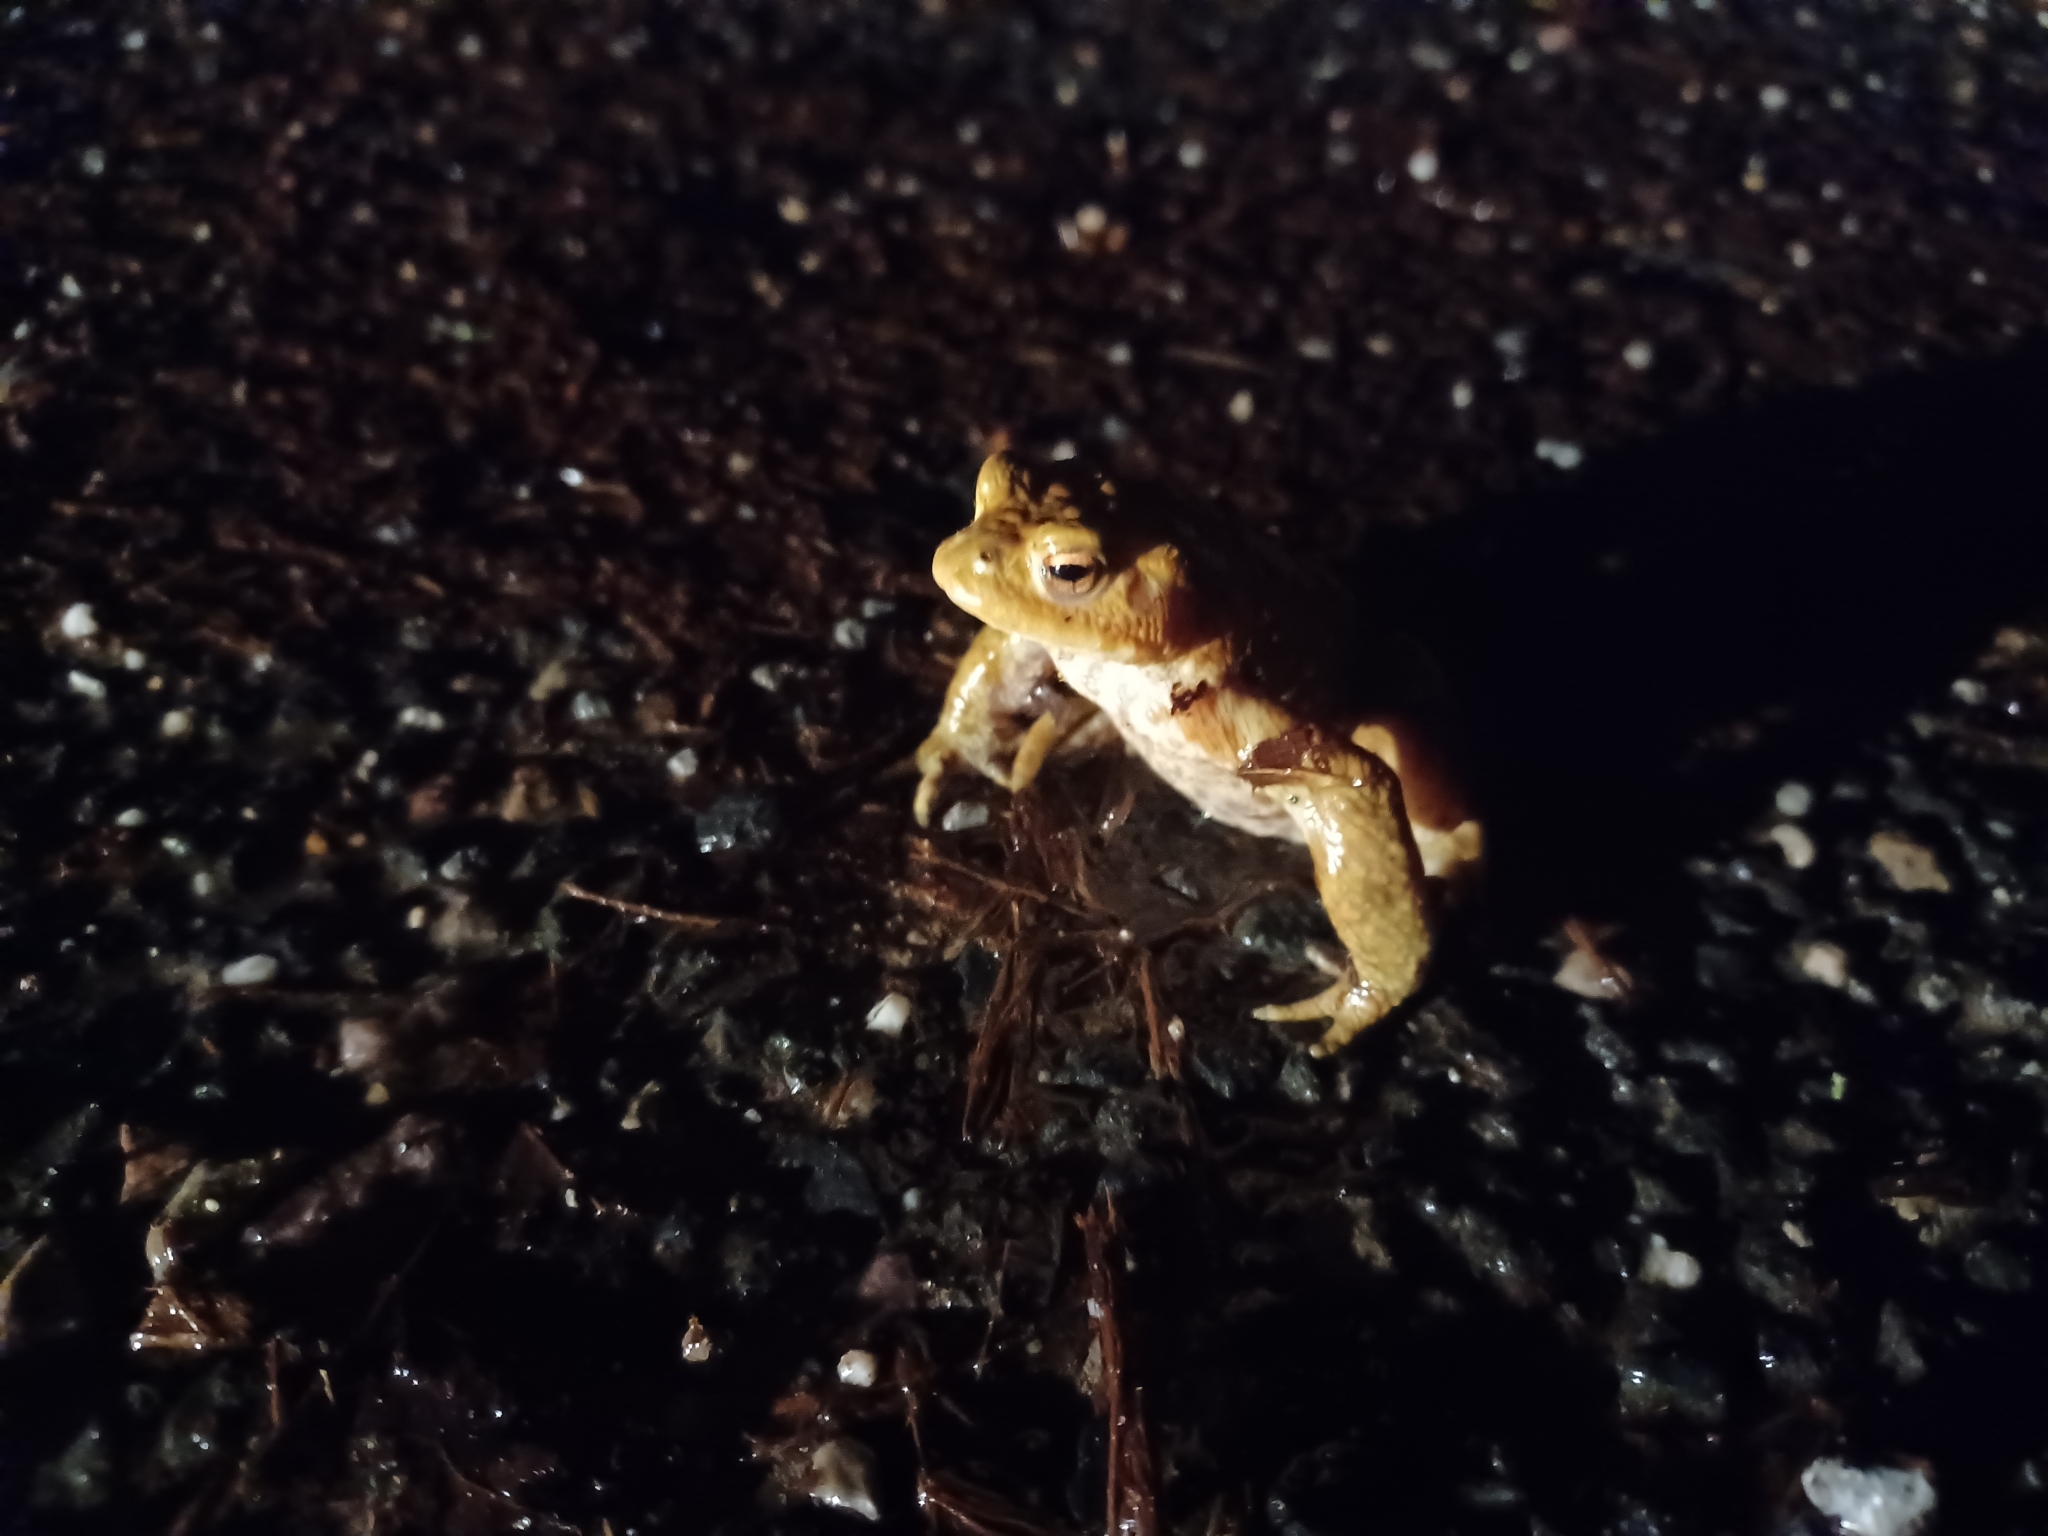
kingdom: Animalia
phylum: Chordata
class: Amphibia
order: Anura
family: Bufonidae
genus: Bufo
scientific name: Bufo bufo
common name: Common toad
